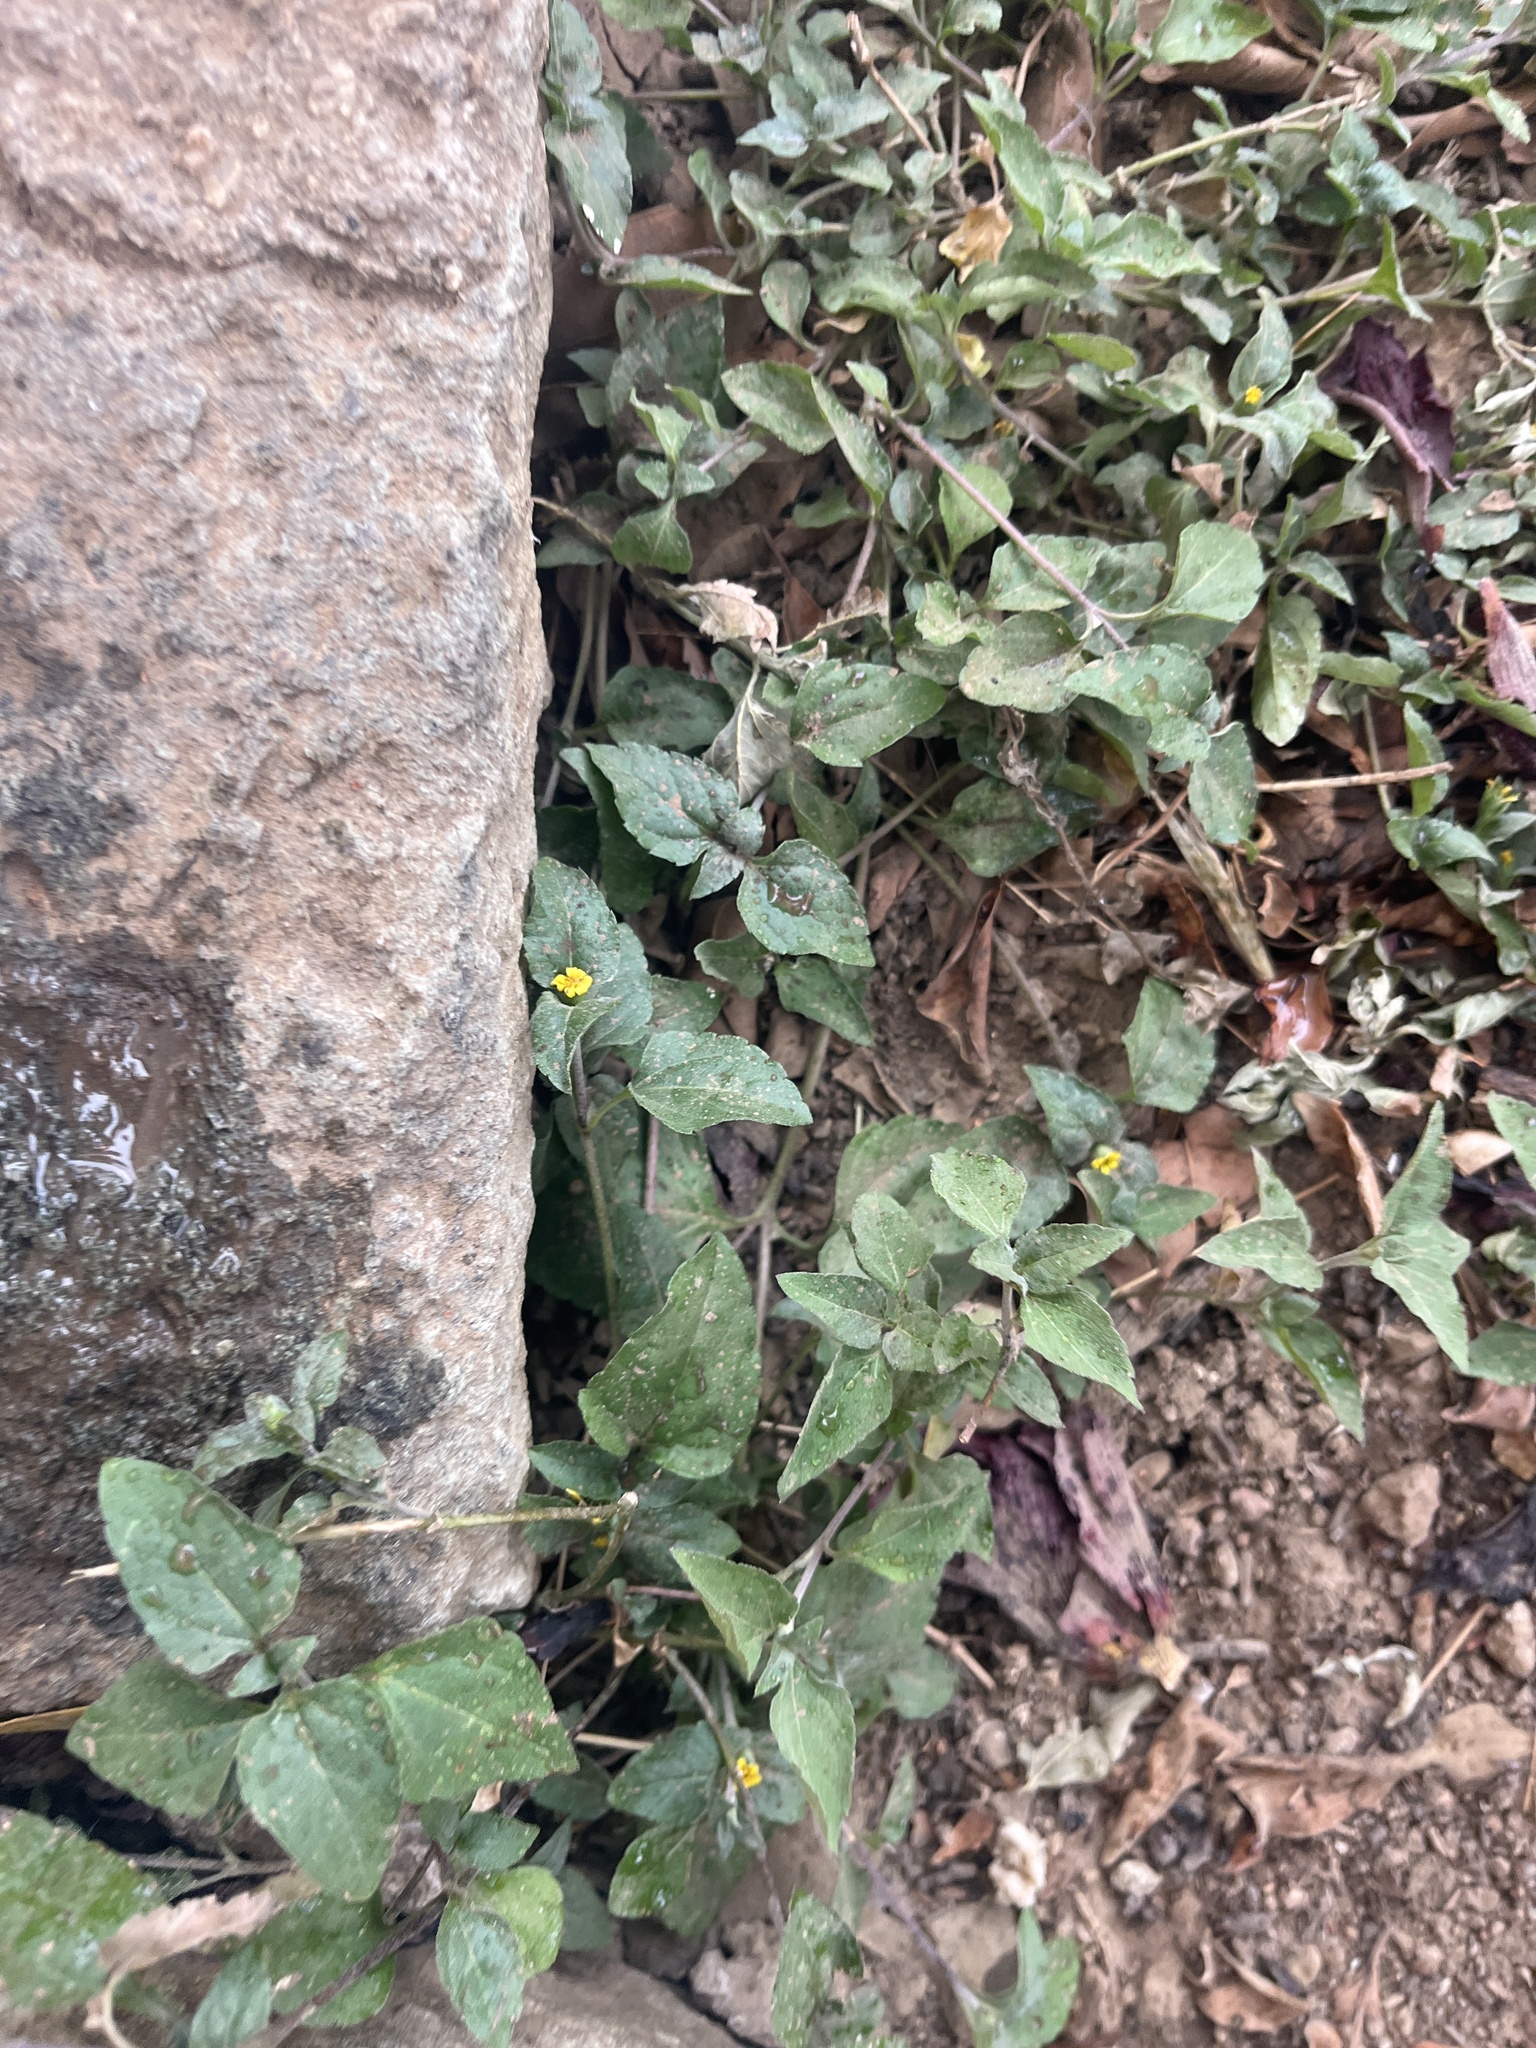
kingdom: Plantae
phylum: Tracheophyta
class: Magnoliopsida
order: Asterales
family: Asteraceae
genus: Calyptocarpus
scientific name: Calyptocarpus vialis
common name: Straggler daisy
